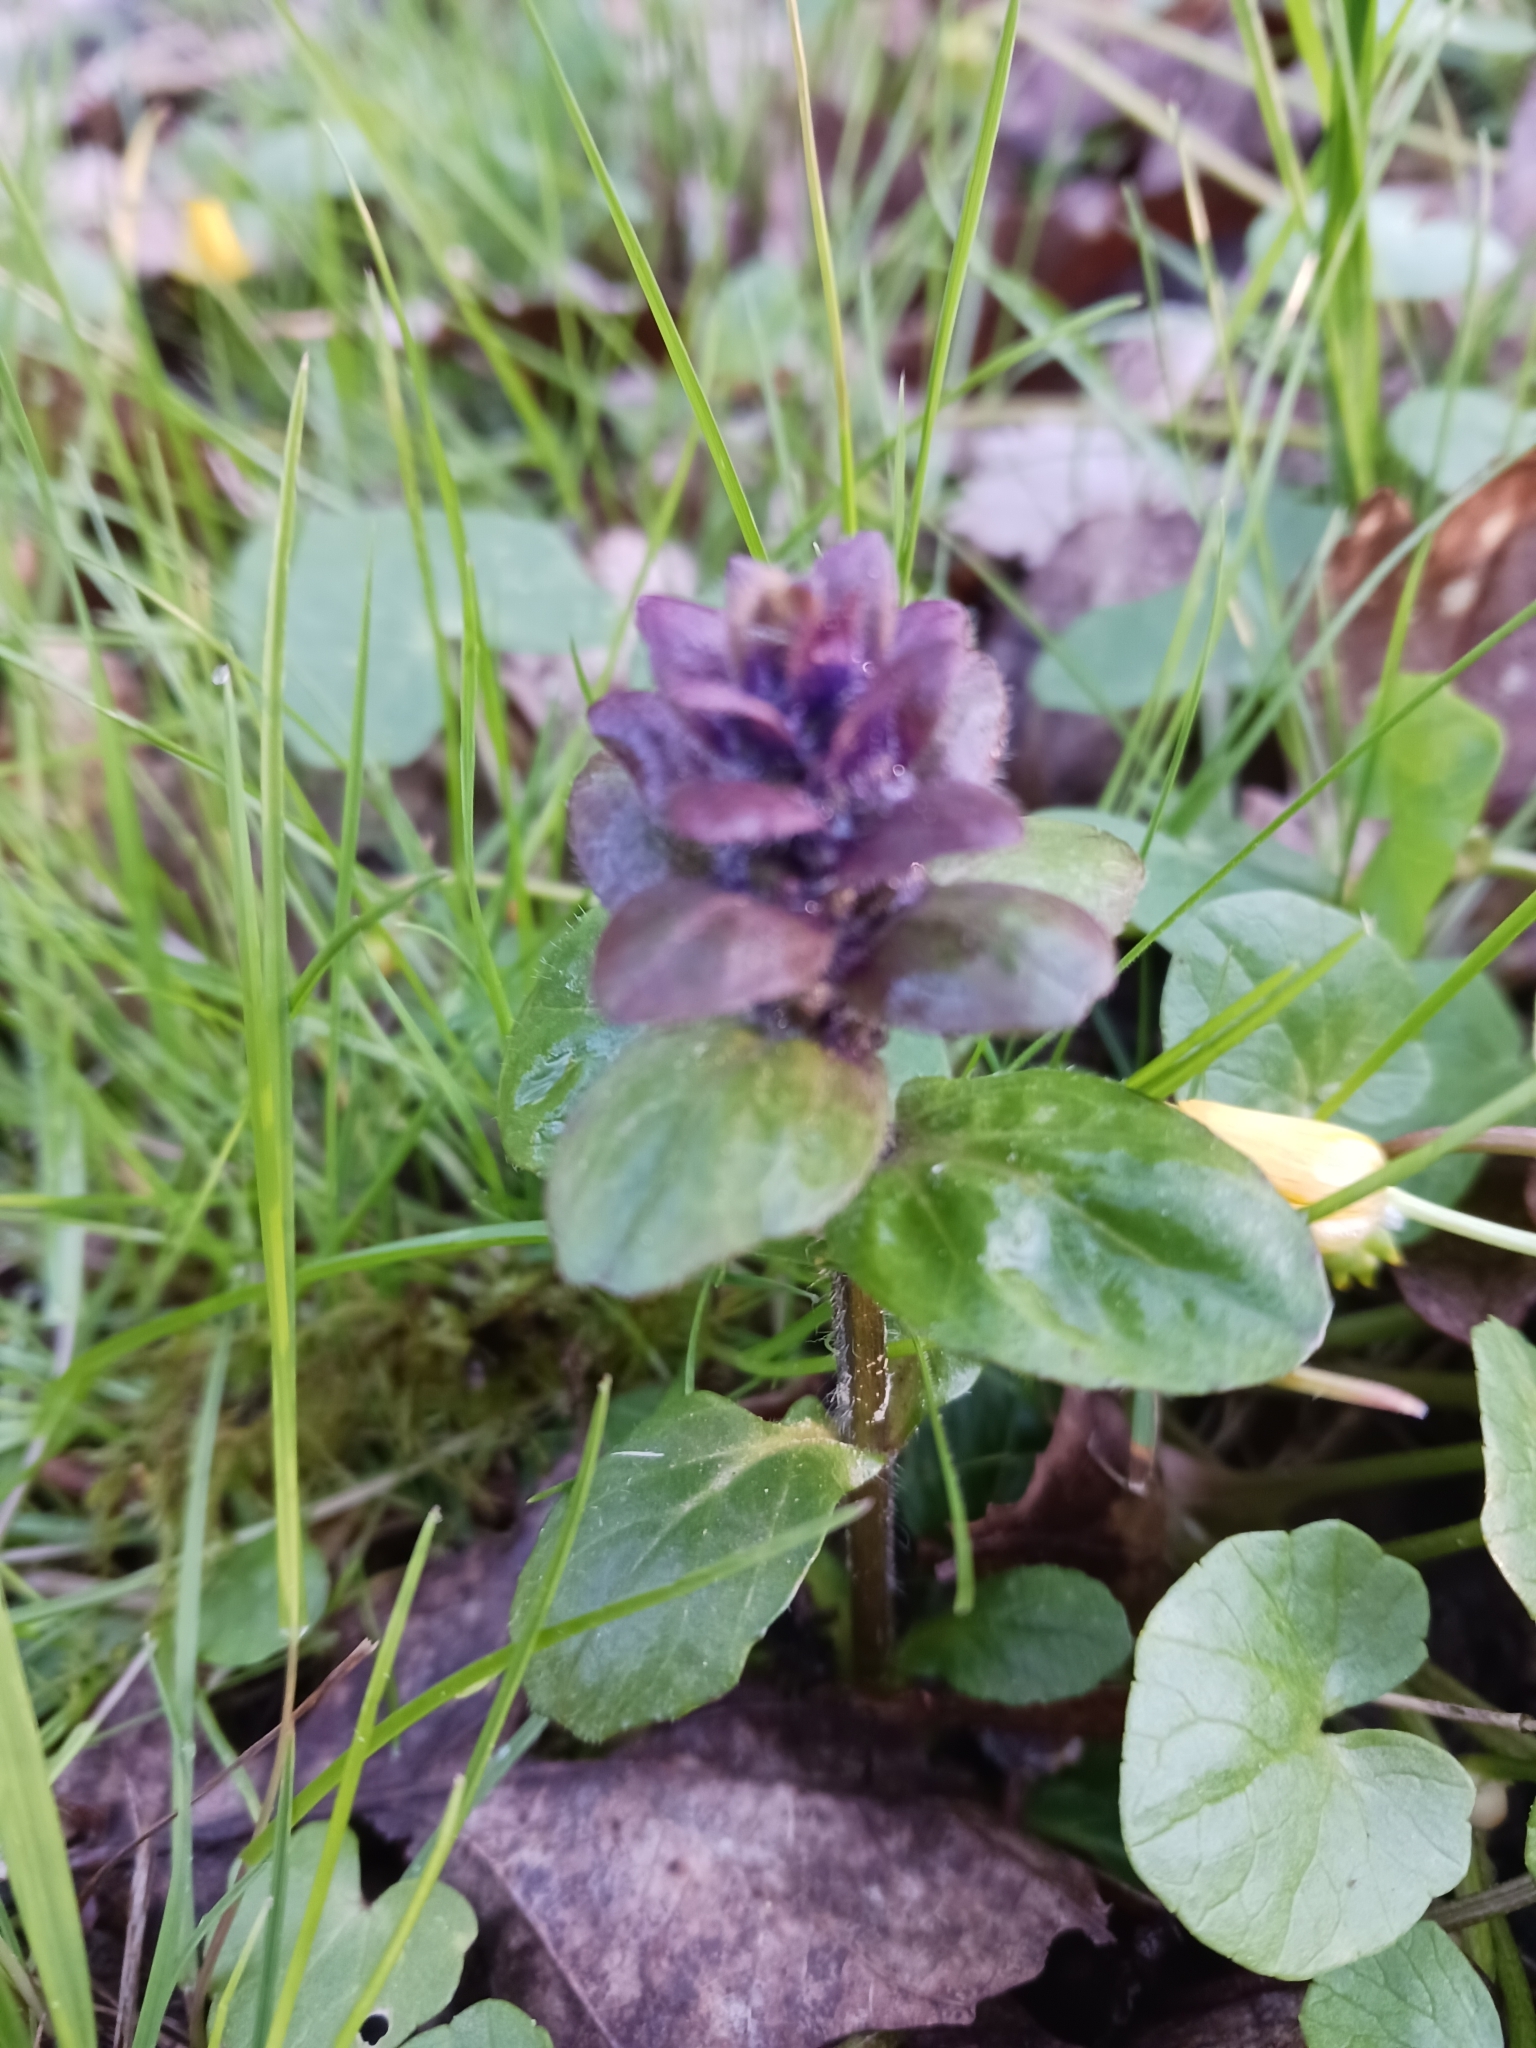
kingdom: Plantae
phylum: Tracheophyta
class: Magnoliopsida
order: Lamiales
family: Lamiaceae
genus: Ajuga
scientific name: Ajuga reptans
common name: Bugle
